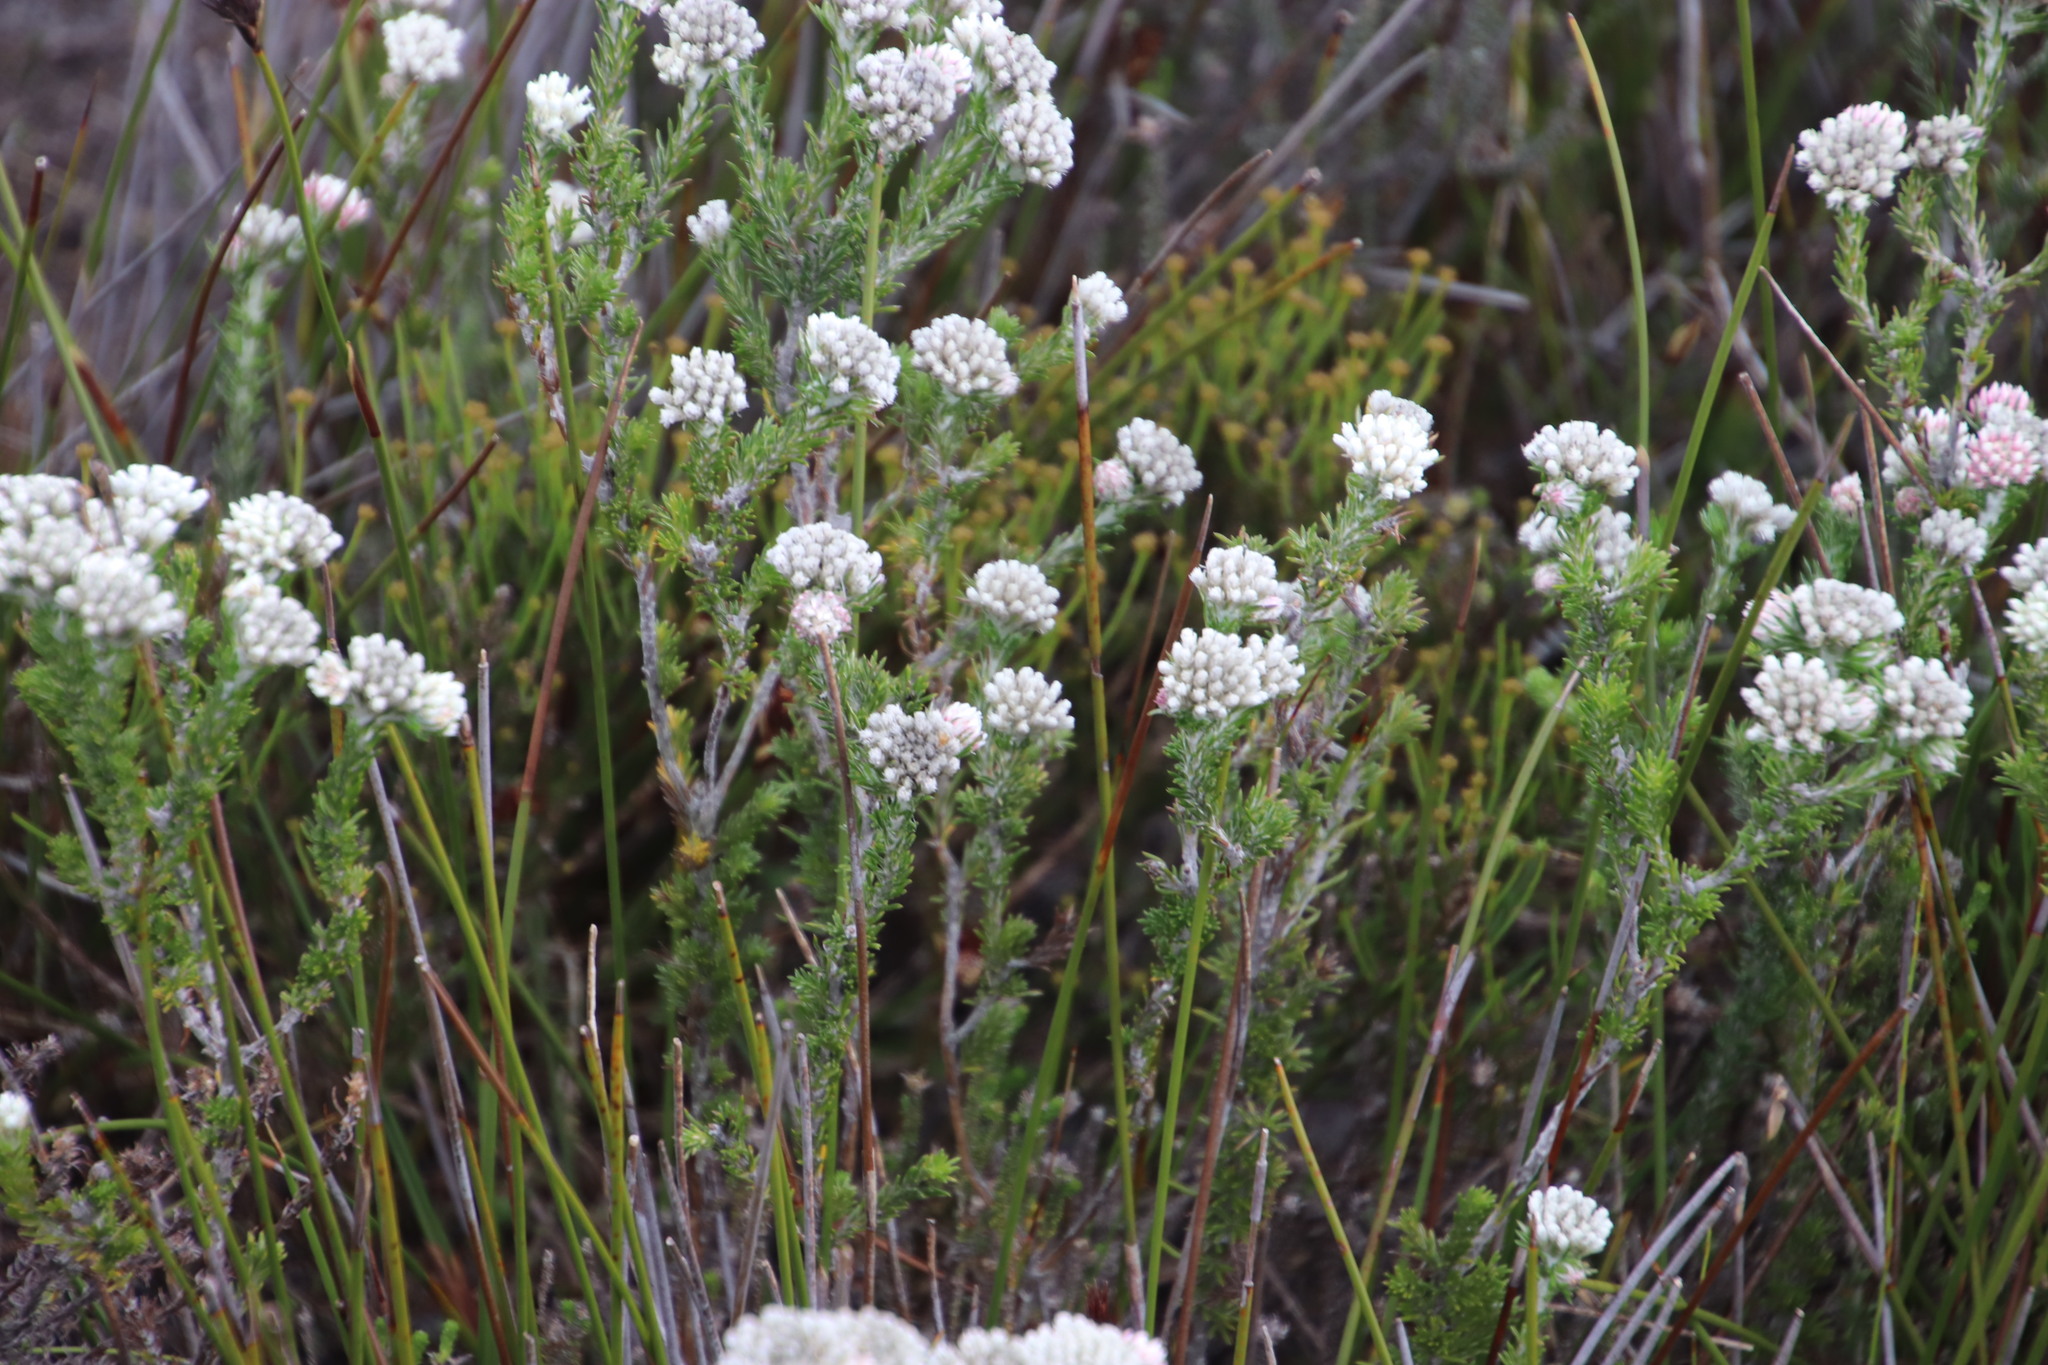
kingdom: Plantae
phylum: Tracheophyta
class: Magnoliopsida
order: Asterales
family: Asteraceae
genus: Metalasia
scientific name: Metalasia compacta
